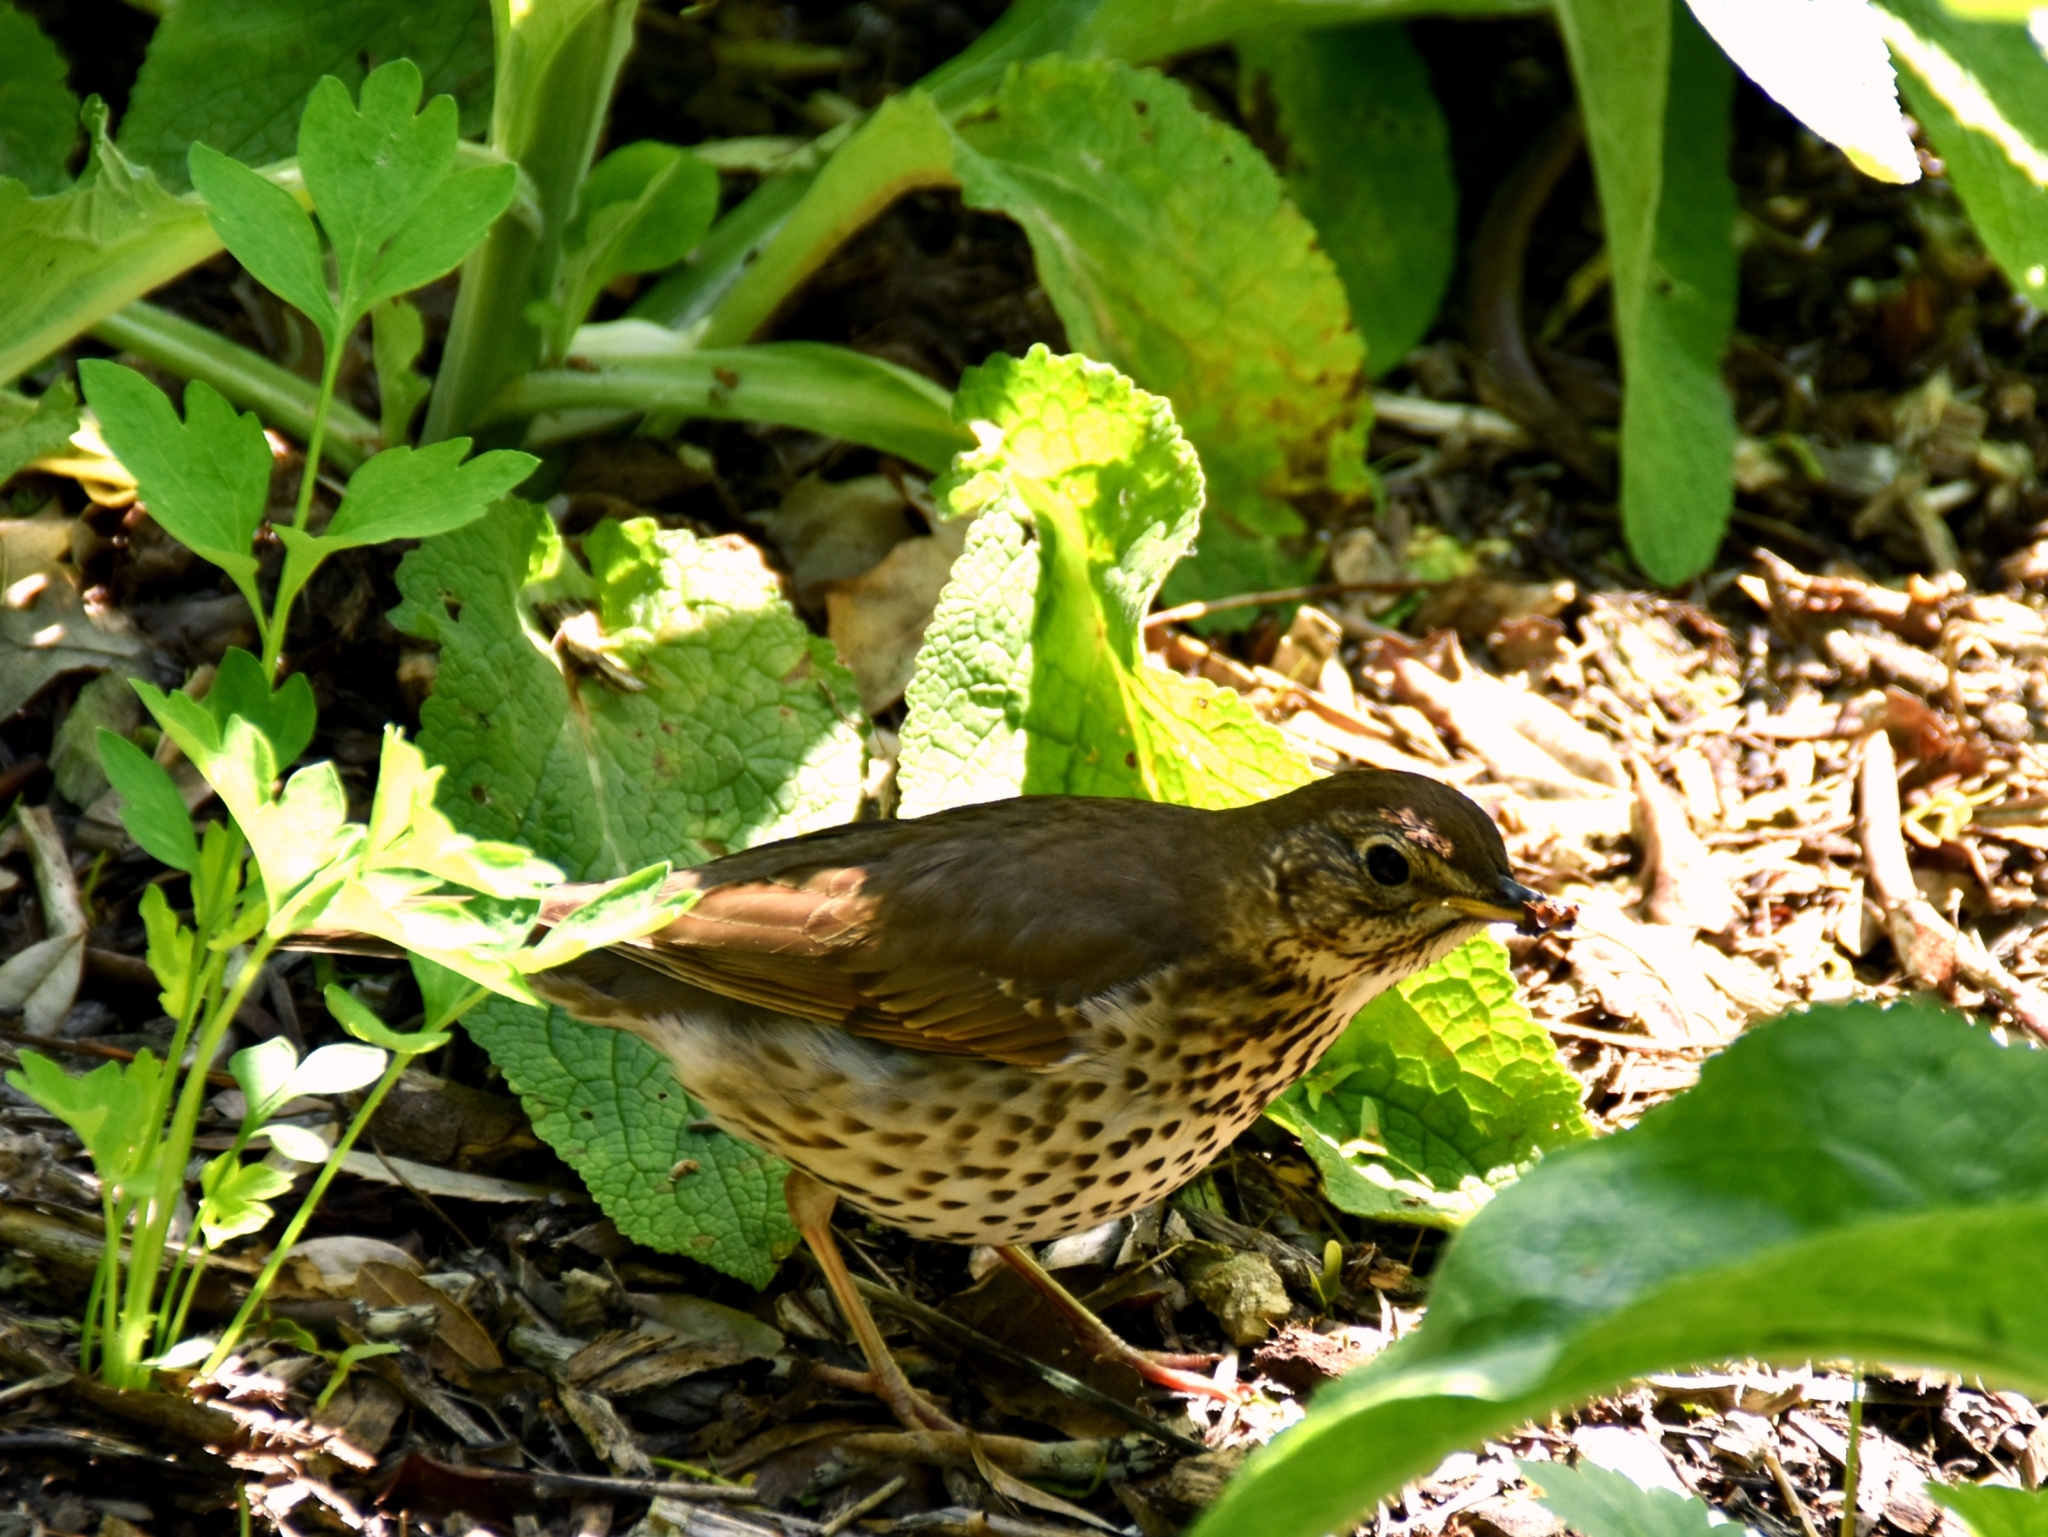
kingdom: Animalia
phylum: Chordata
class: Aves
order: Passeriformes
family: Turdidae
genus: Turdus
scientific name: Turdus philomelos
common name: Song thrush
